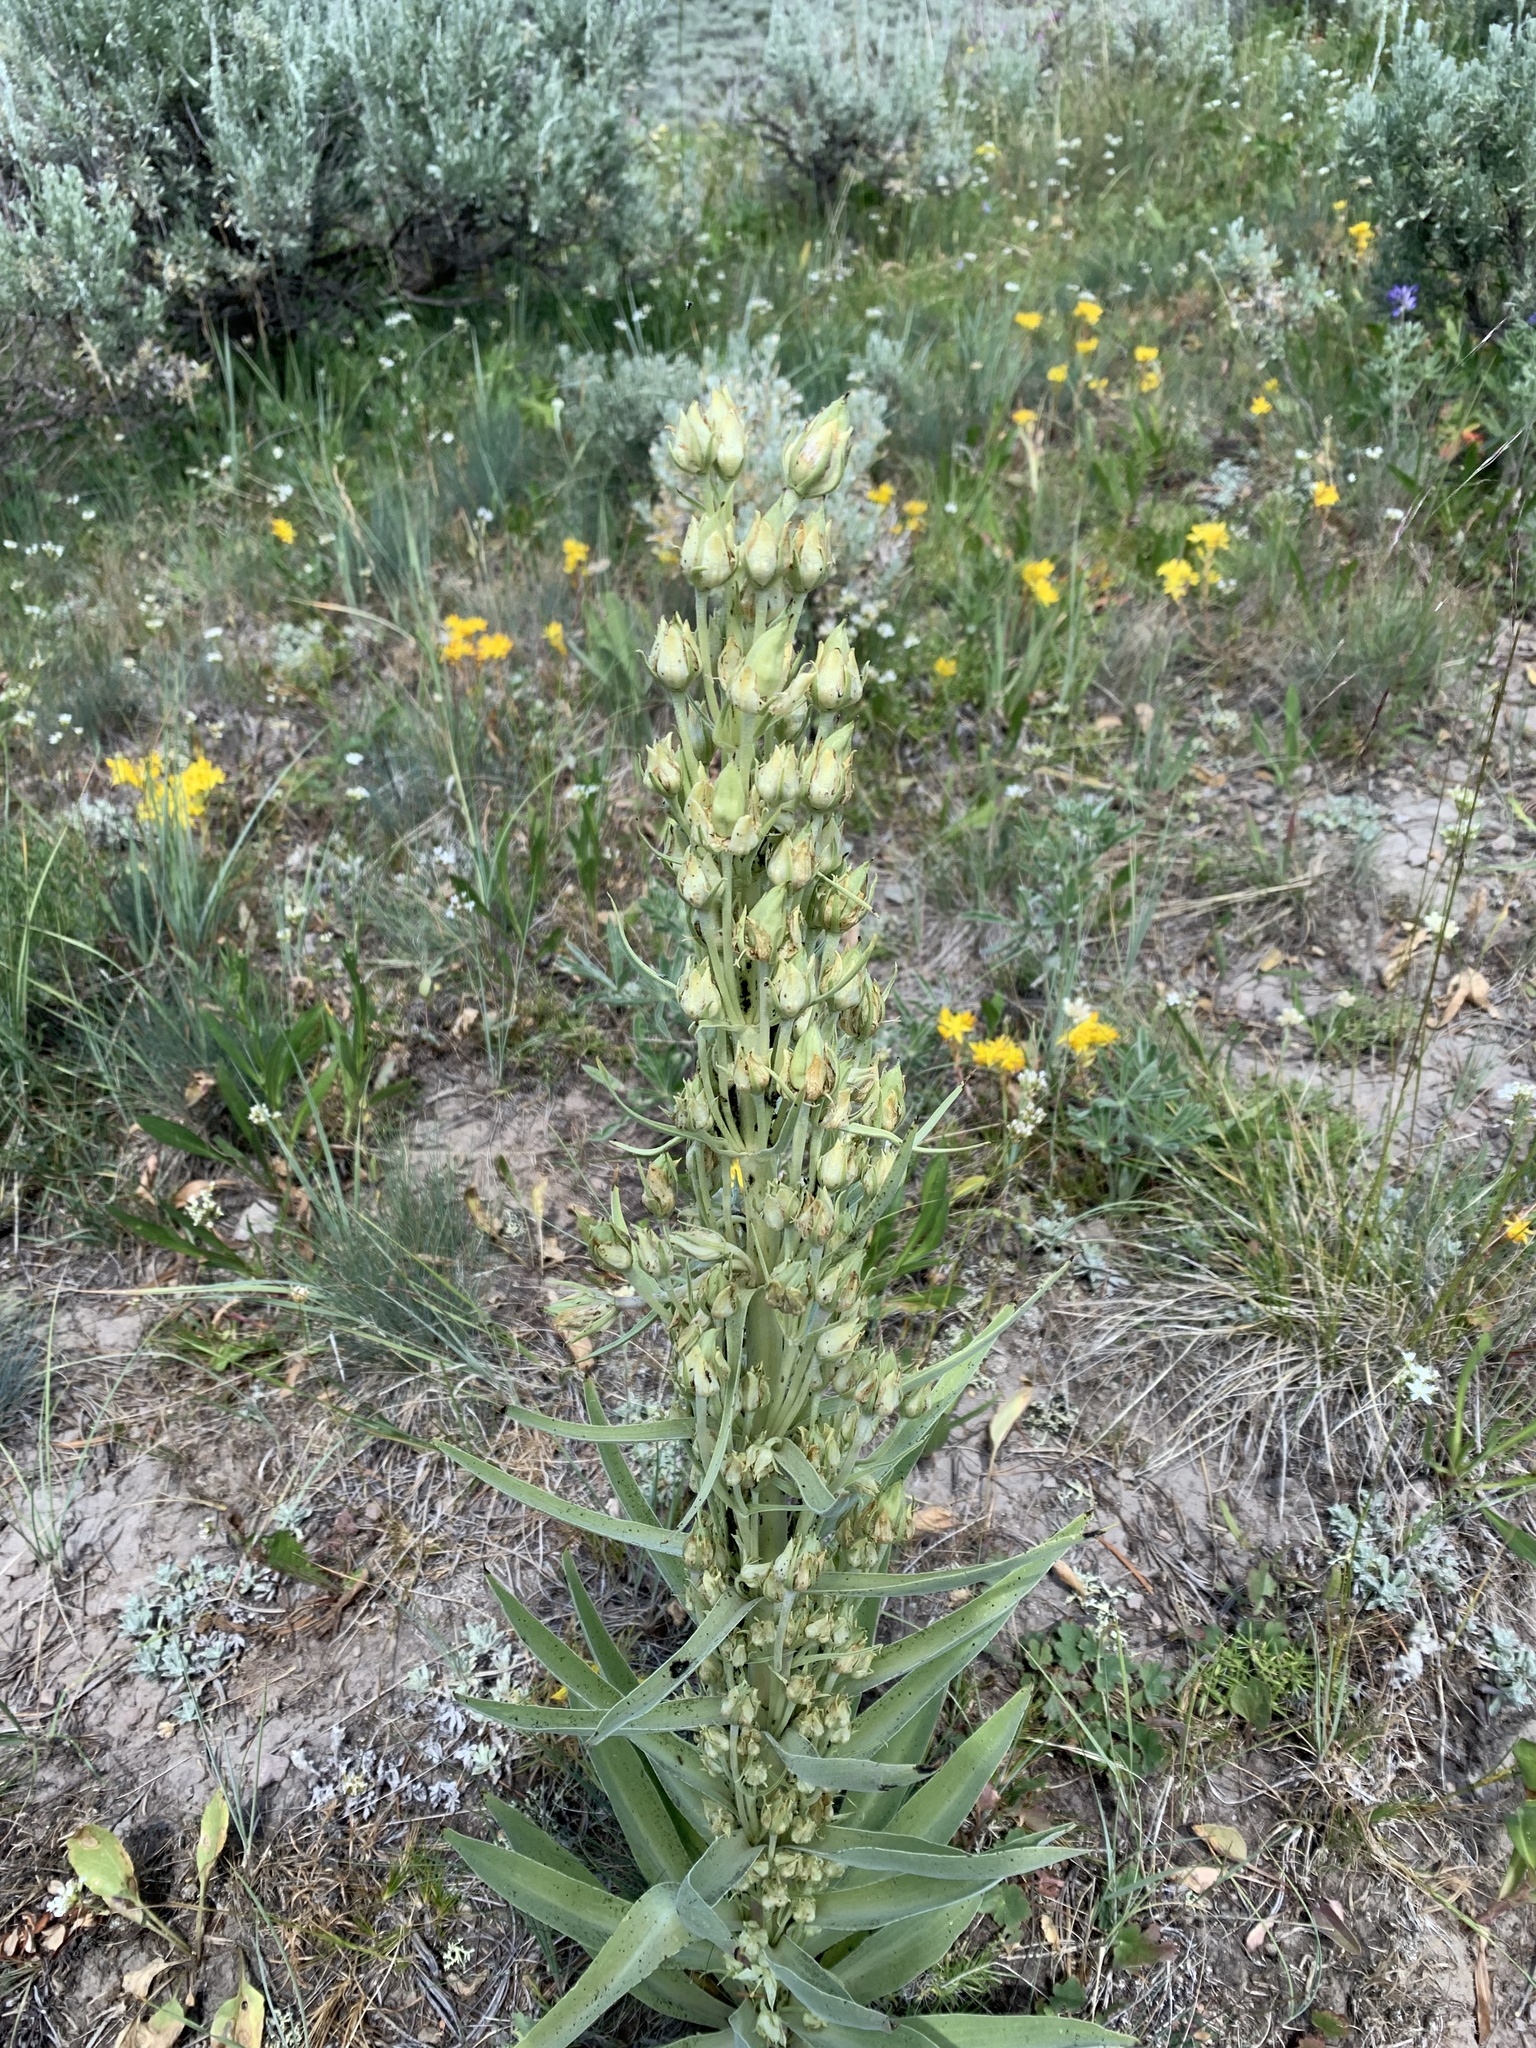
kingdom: Plantae
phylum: Tracheophyta
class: Magnoliopsida
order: Gentianales
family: Gentianaceae
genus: Frasera
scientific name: Frasera speciosa
